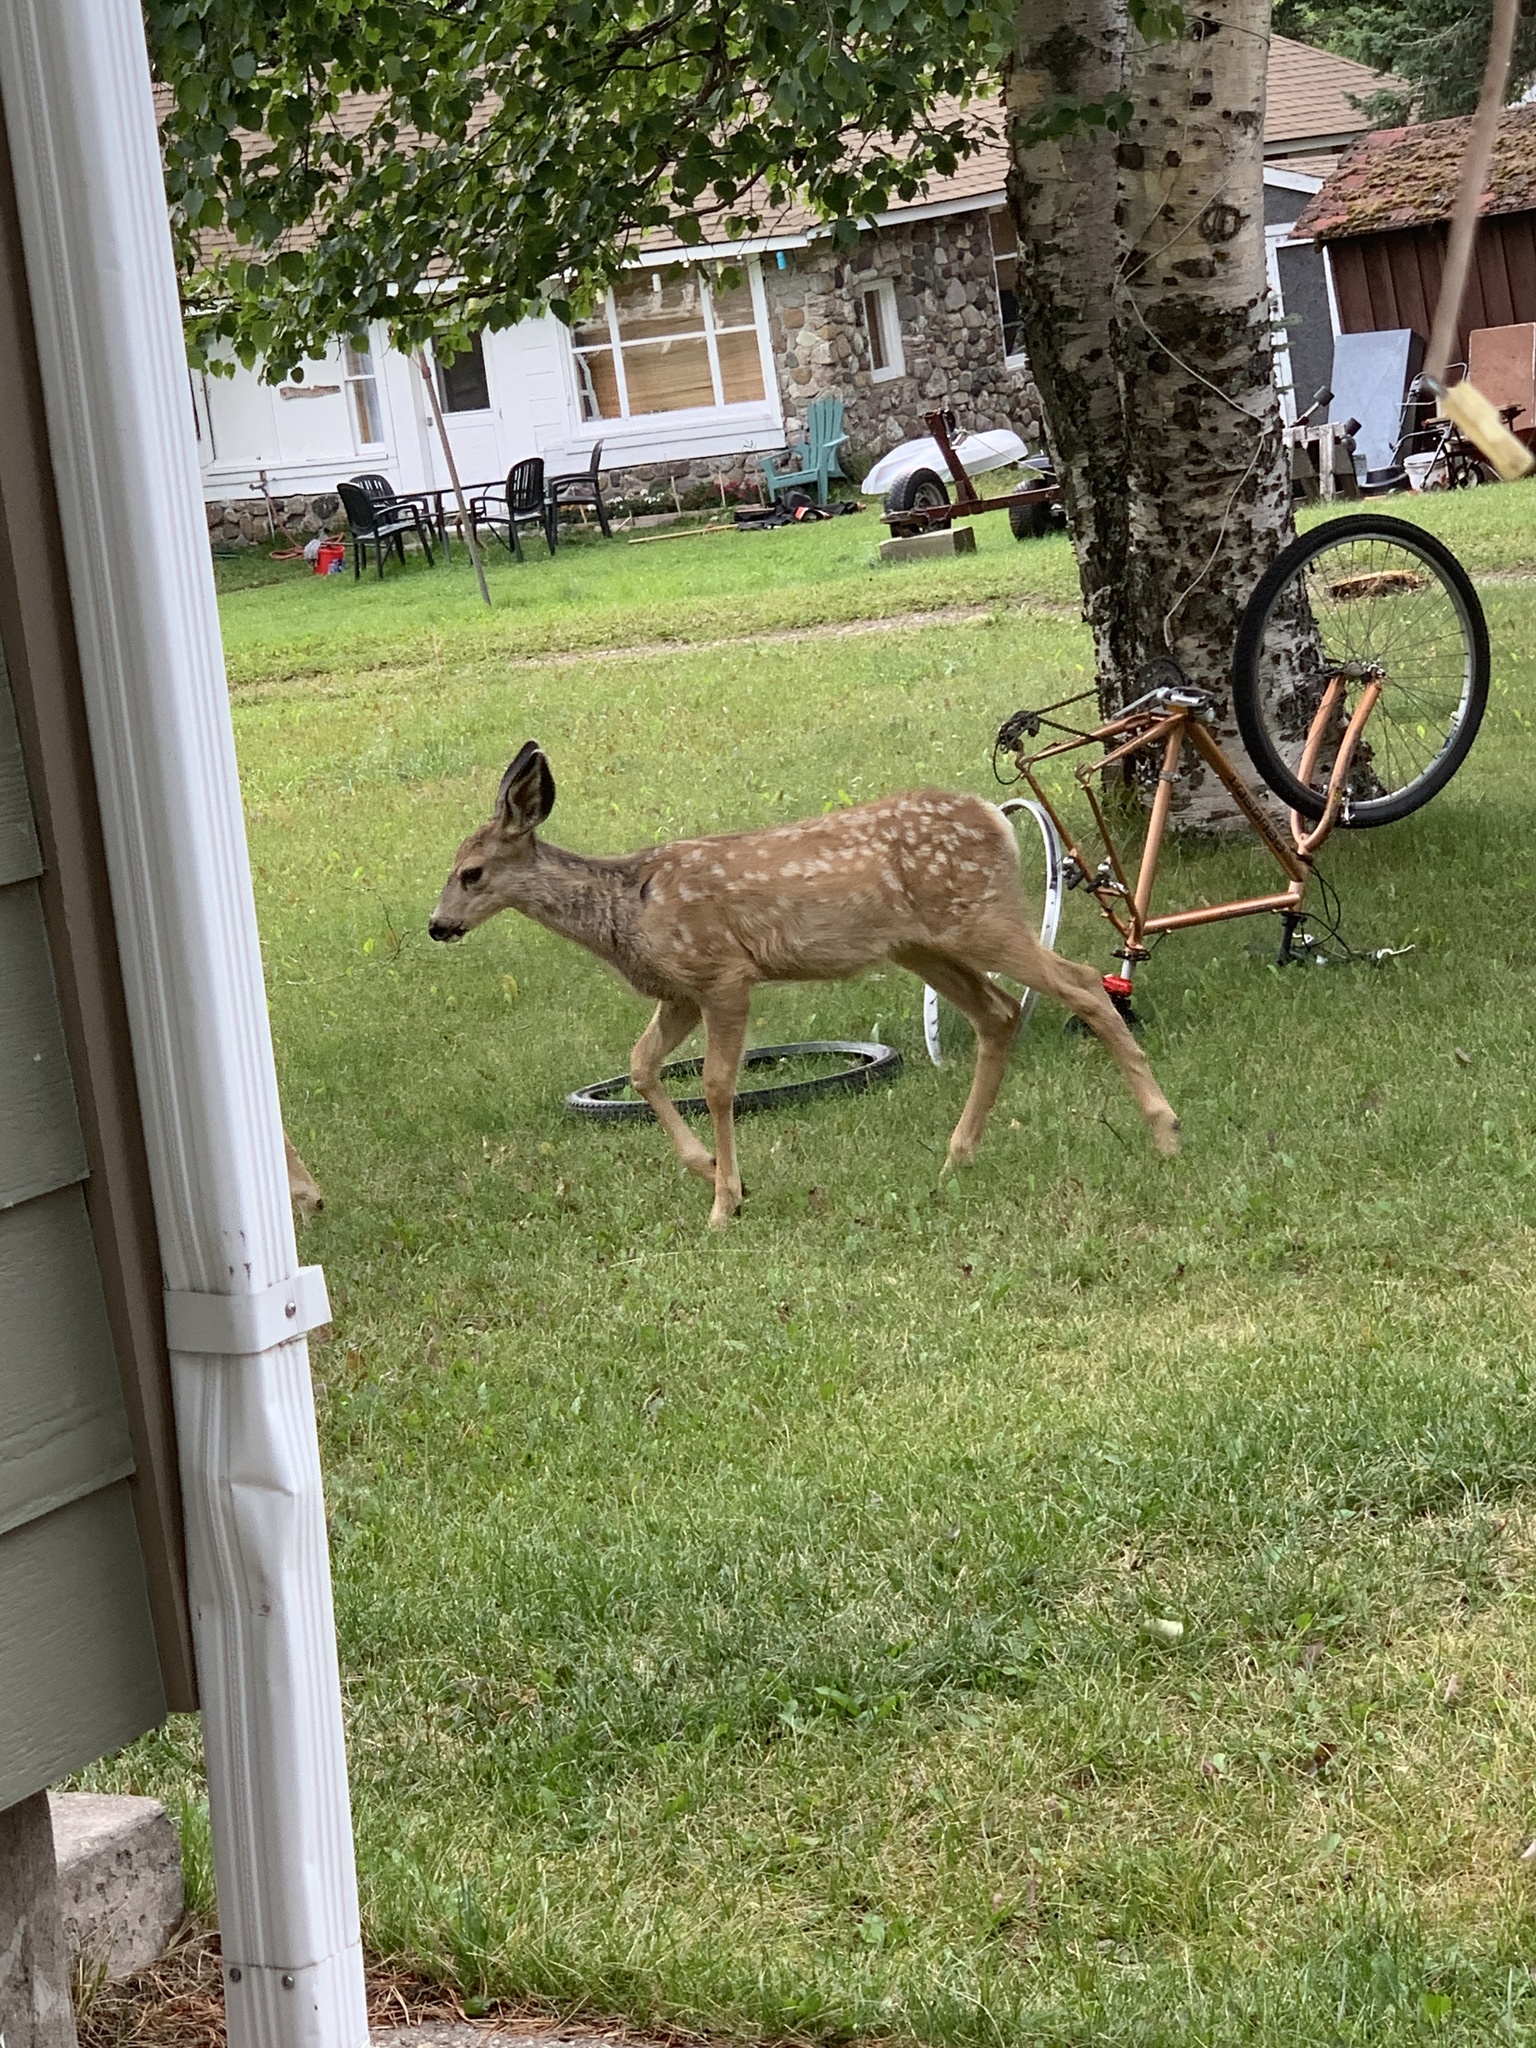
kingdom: Animalia
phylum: Chordata
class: Mammalia
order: Artiodactyla
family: Cervidae
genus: Odocoileus
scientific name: Odocoileus hemionus
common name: Mule deer
